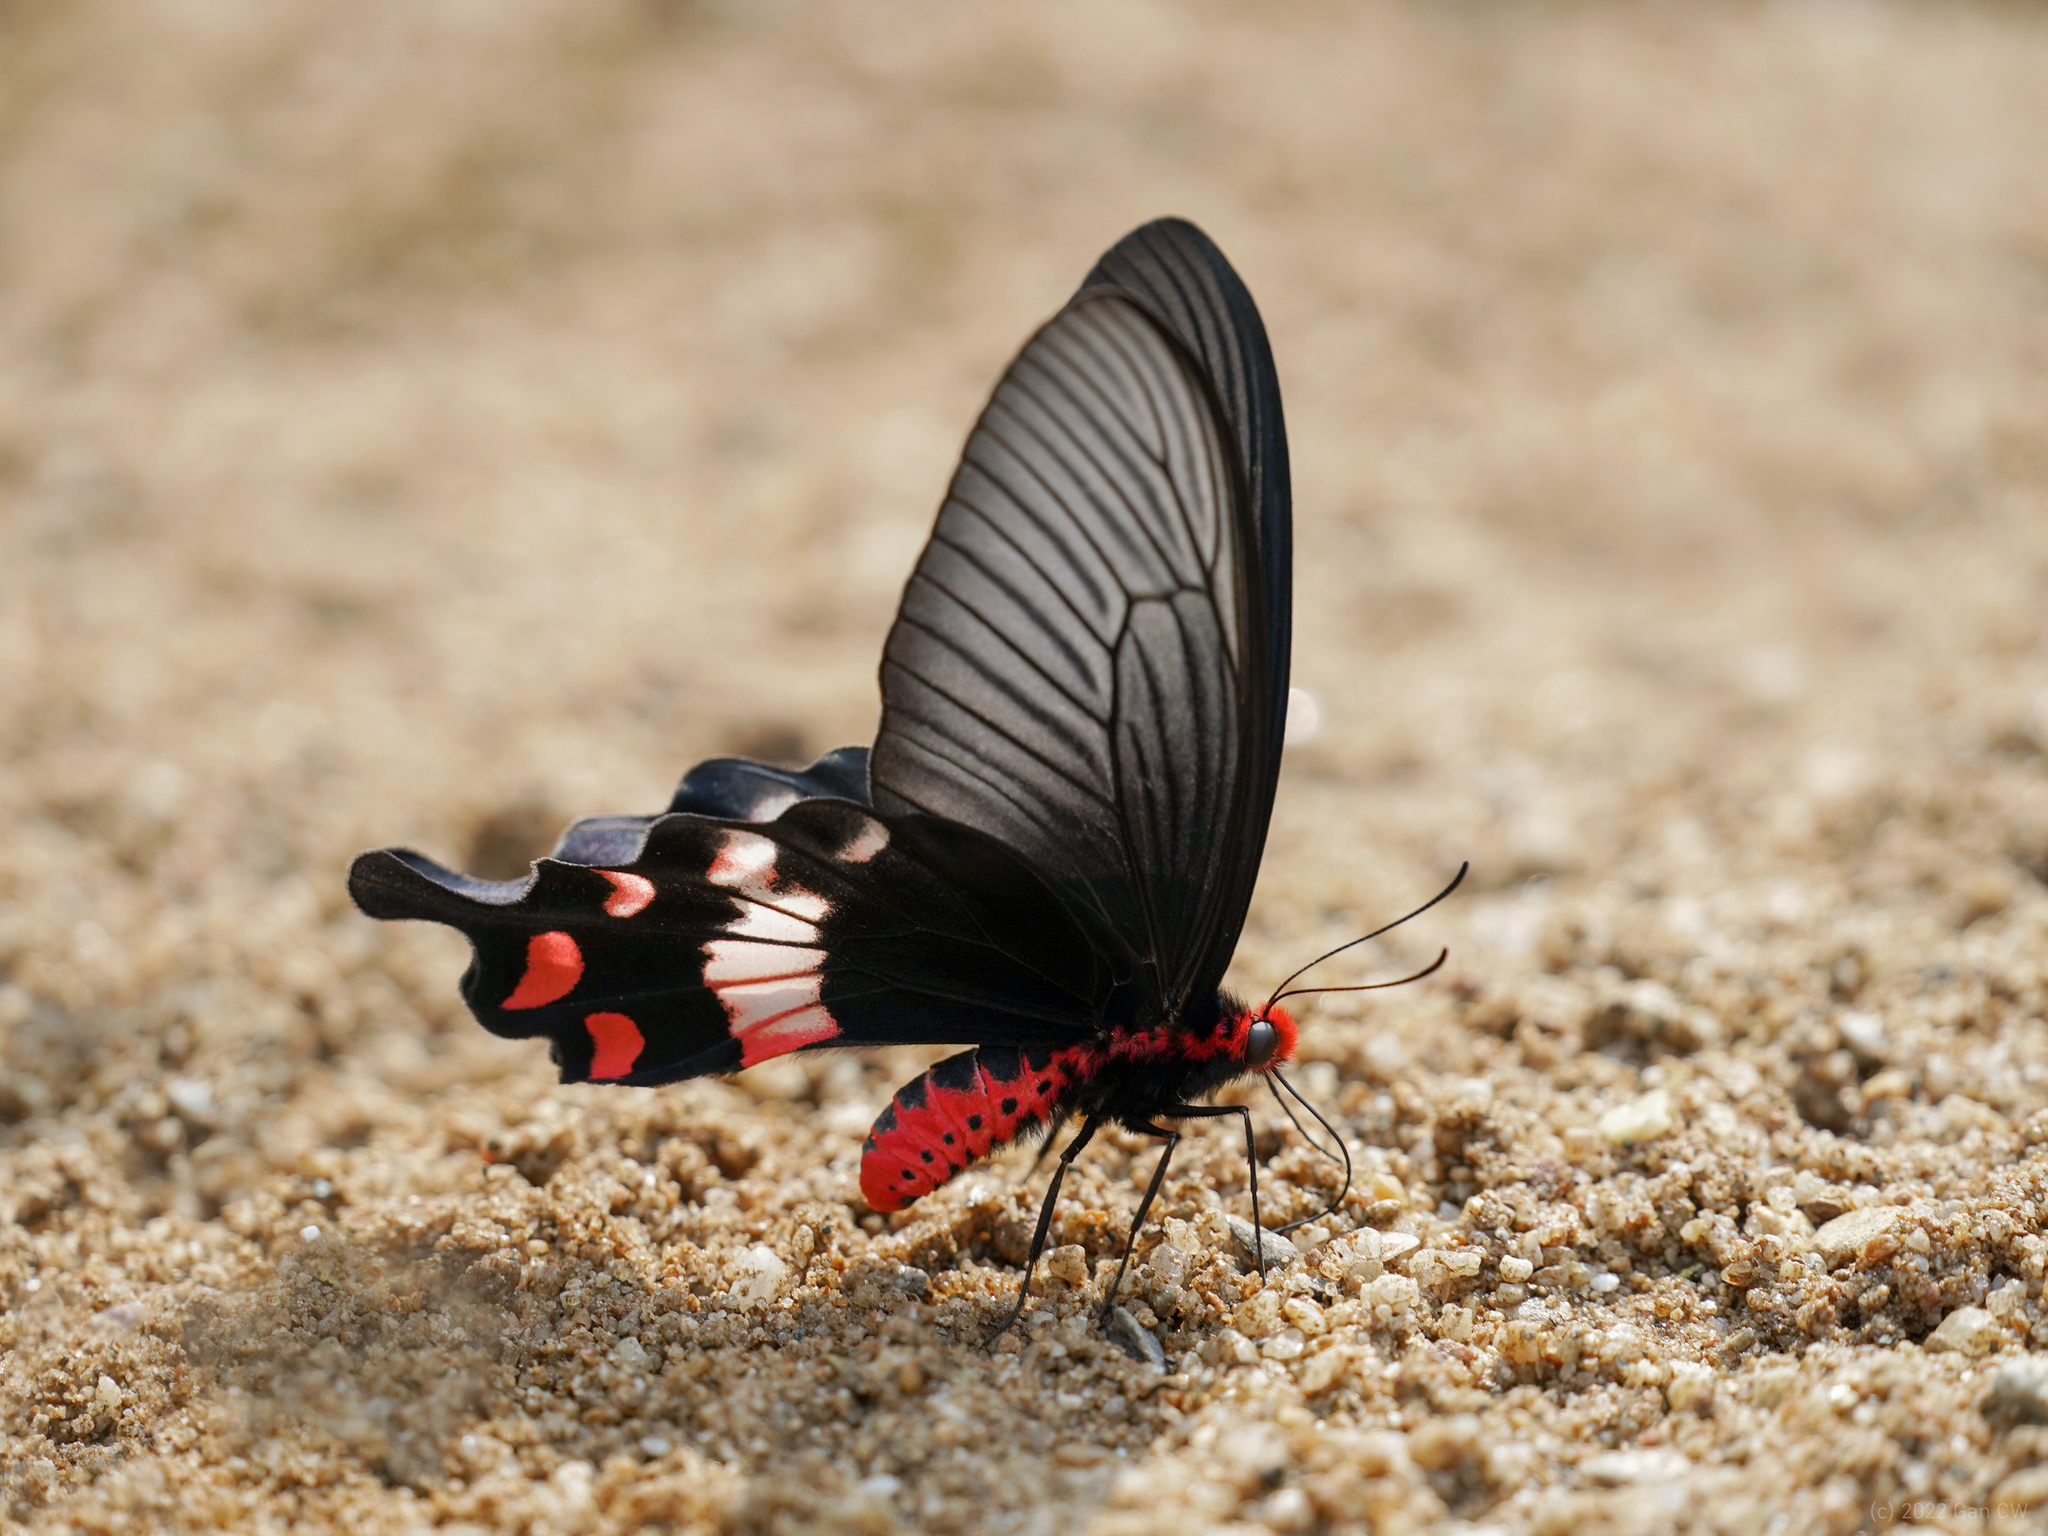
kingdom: Animalia
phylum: Arthropoda
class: Insecta
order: Lepidoptera
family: Papilionidae
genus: Byasa
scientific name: Byasa adamsoni
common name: Adamson's rose
